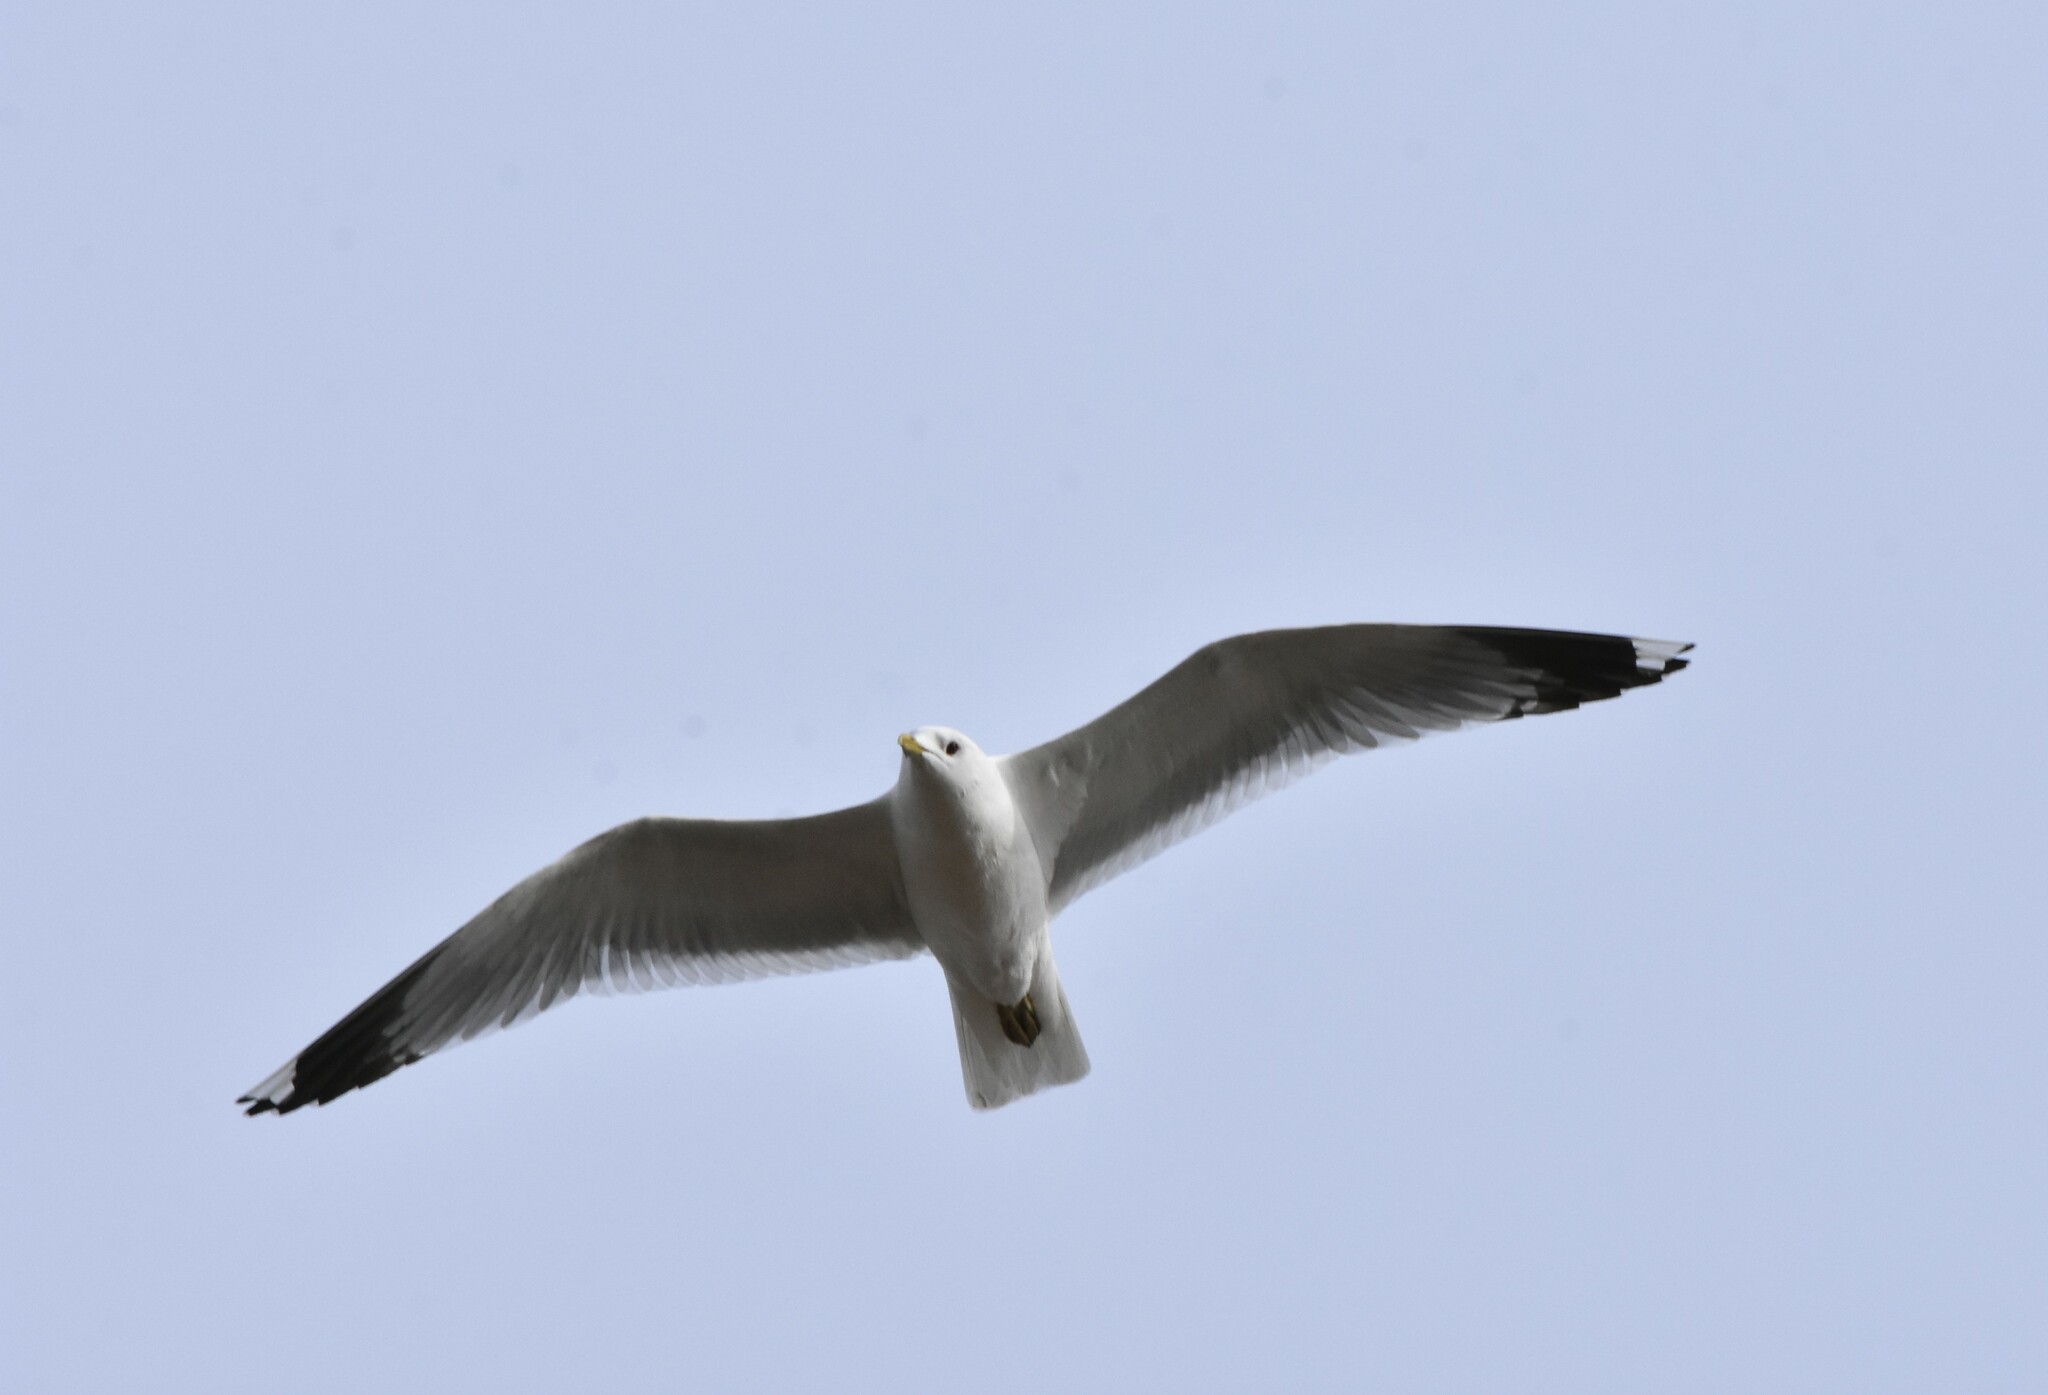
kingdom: Animalia
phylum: Chordata
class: Aves
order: Charadriiformes
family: Laridae
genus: Larus
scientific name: Larus canus
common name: Mew gull
